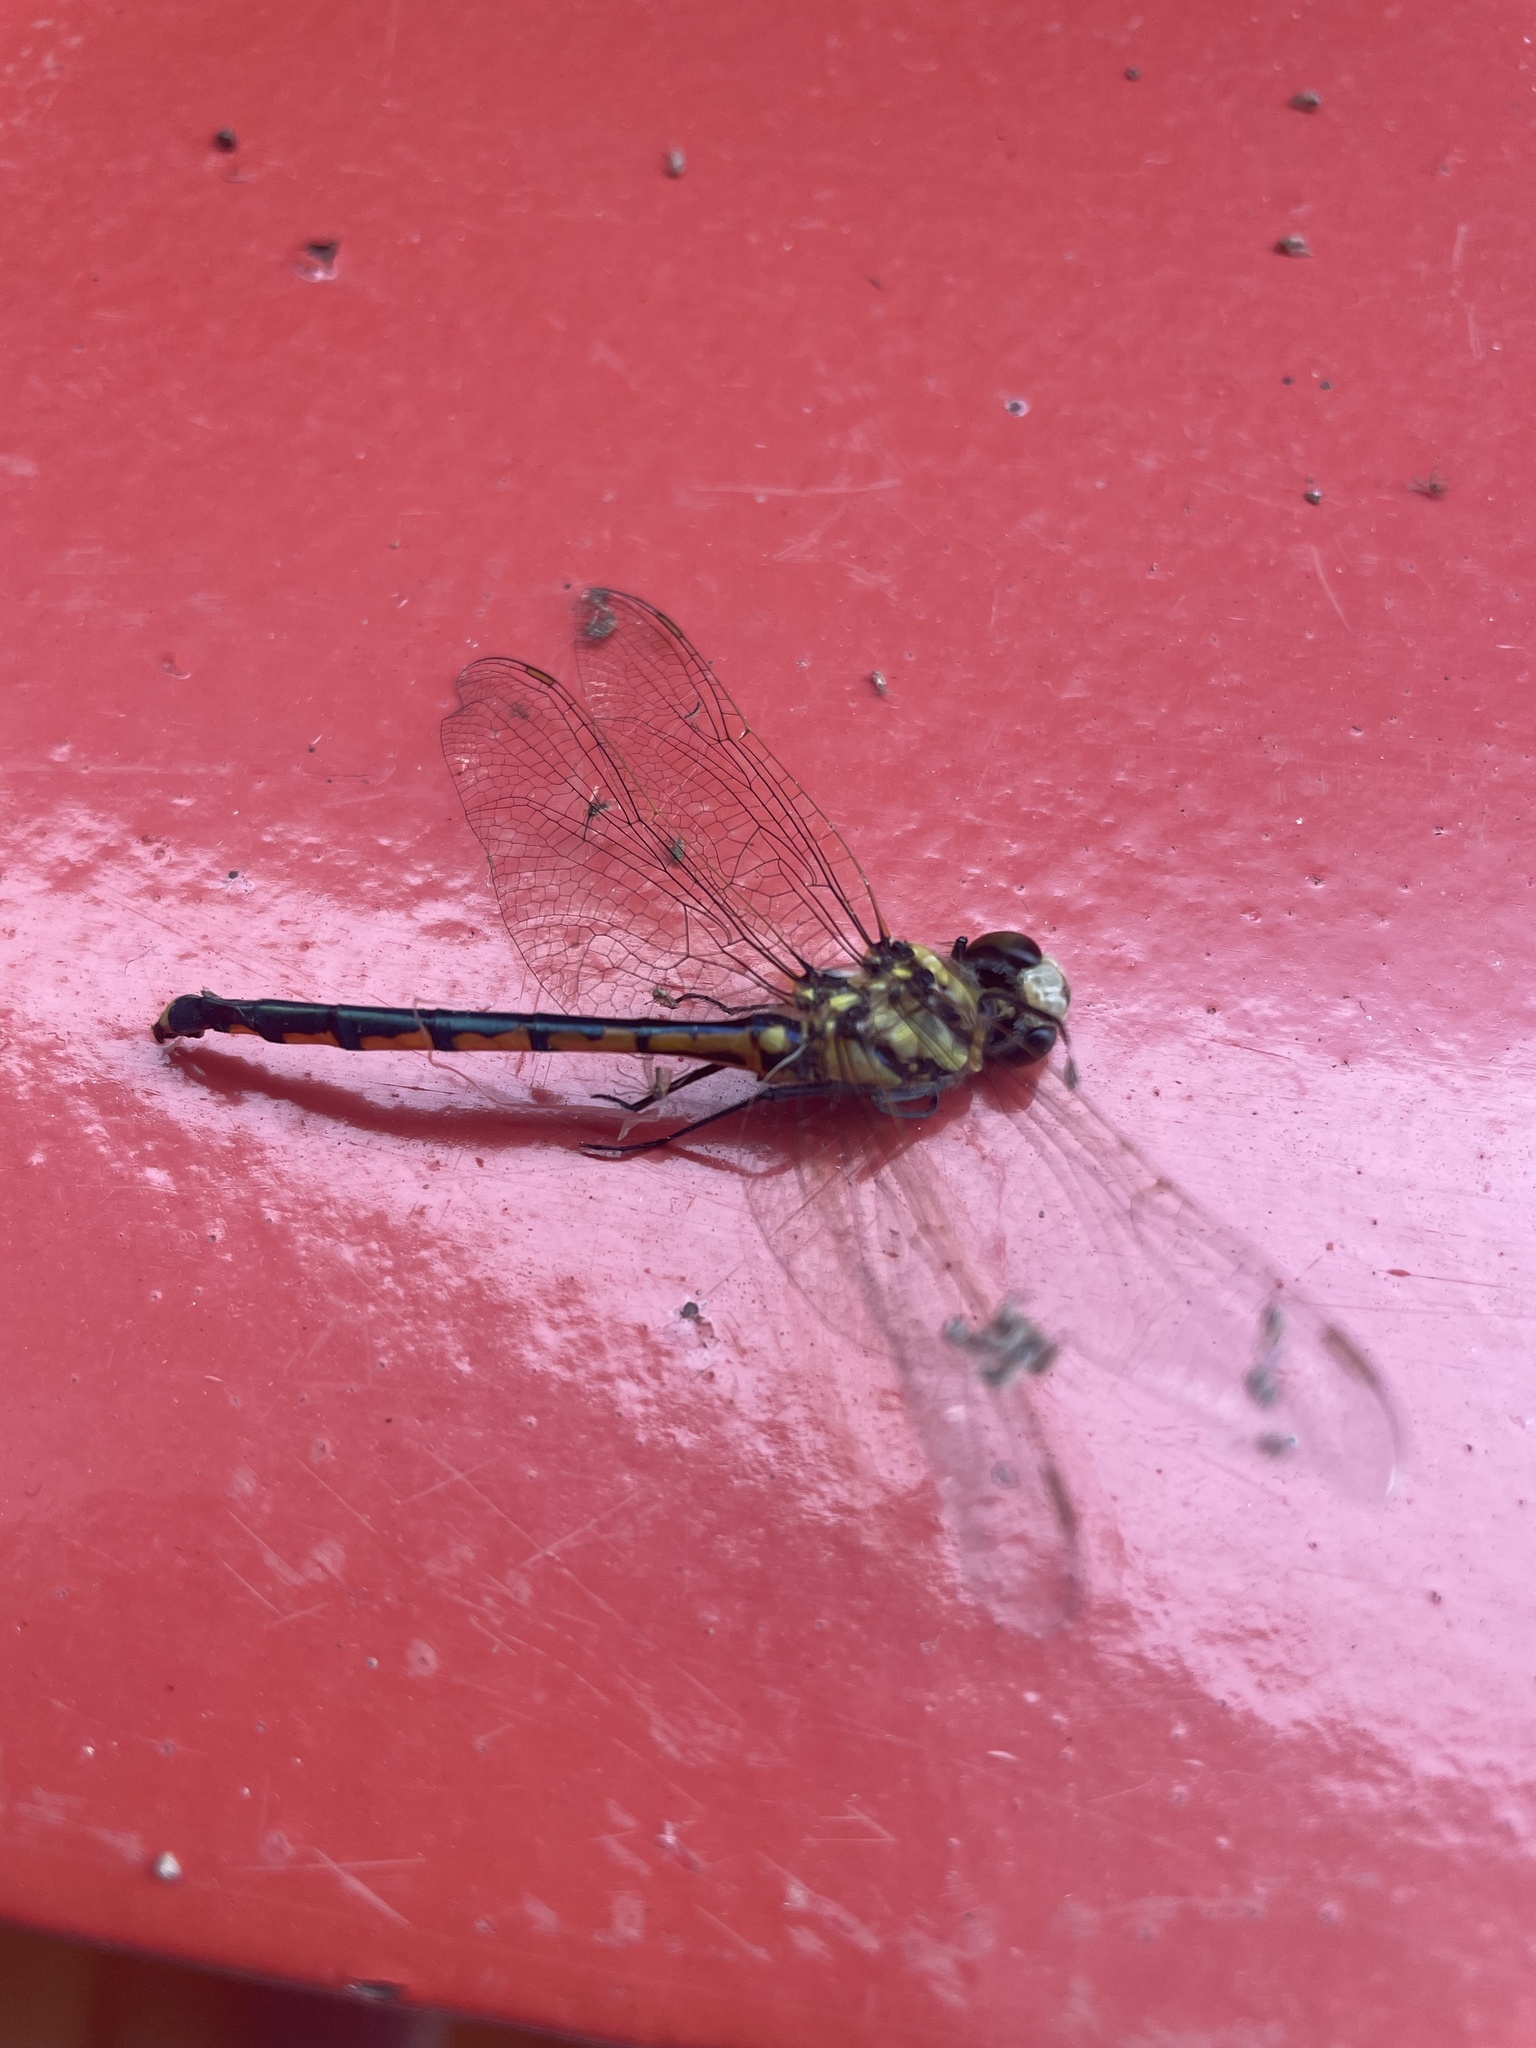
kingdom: Animalia
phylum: Arthropoda
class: Insecta
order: Odonata
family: Corduliidae
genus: Hemicordulia
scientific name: Hemicordulia tau
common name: Tau emerald
